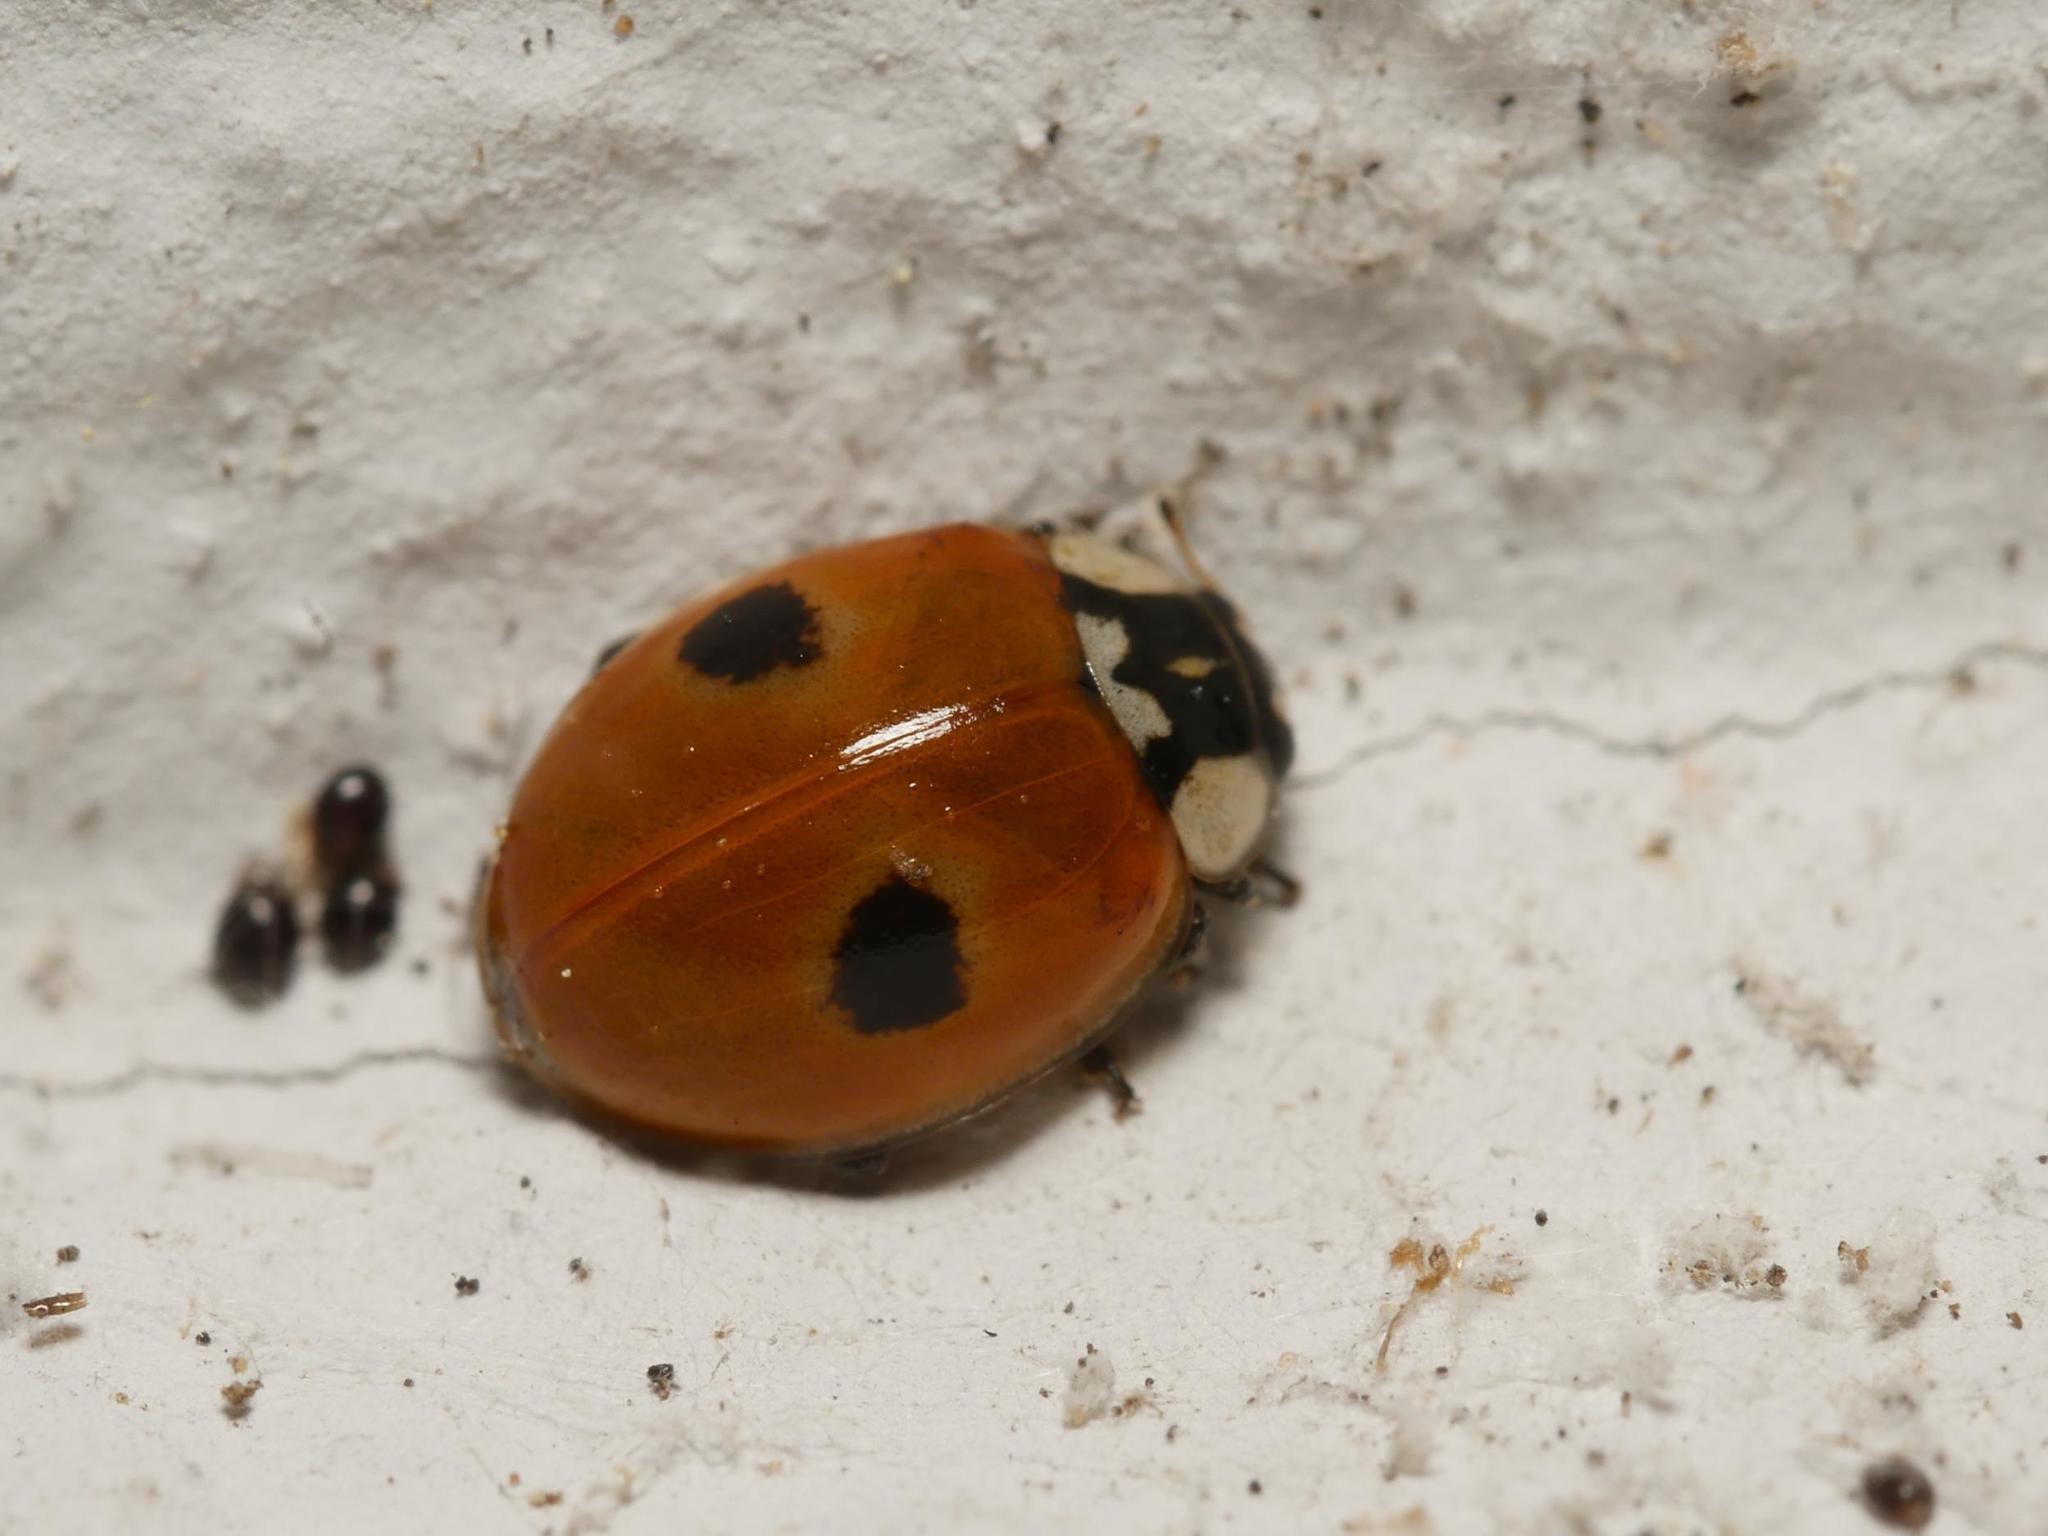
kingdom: Animalia
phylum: Arthropoda
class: Insecta
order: Coleoptera
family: Coccinellidae
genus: Adalia
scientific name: Adalia bipunctata
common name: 2-spot ladybird
